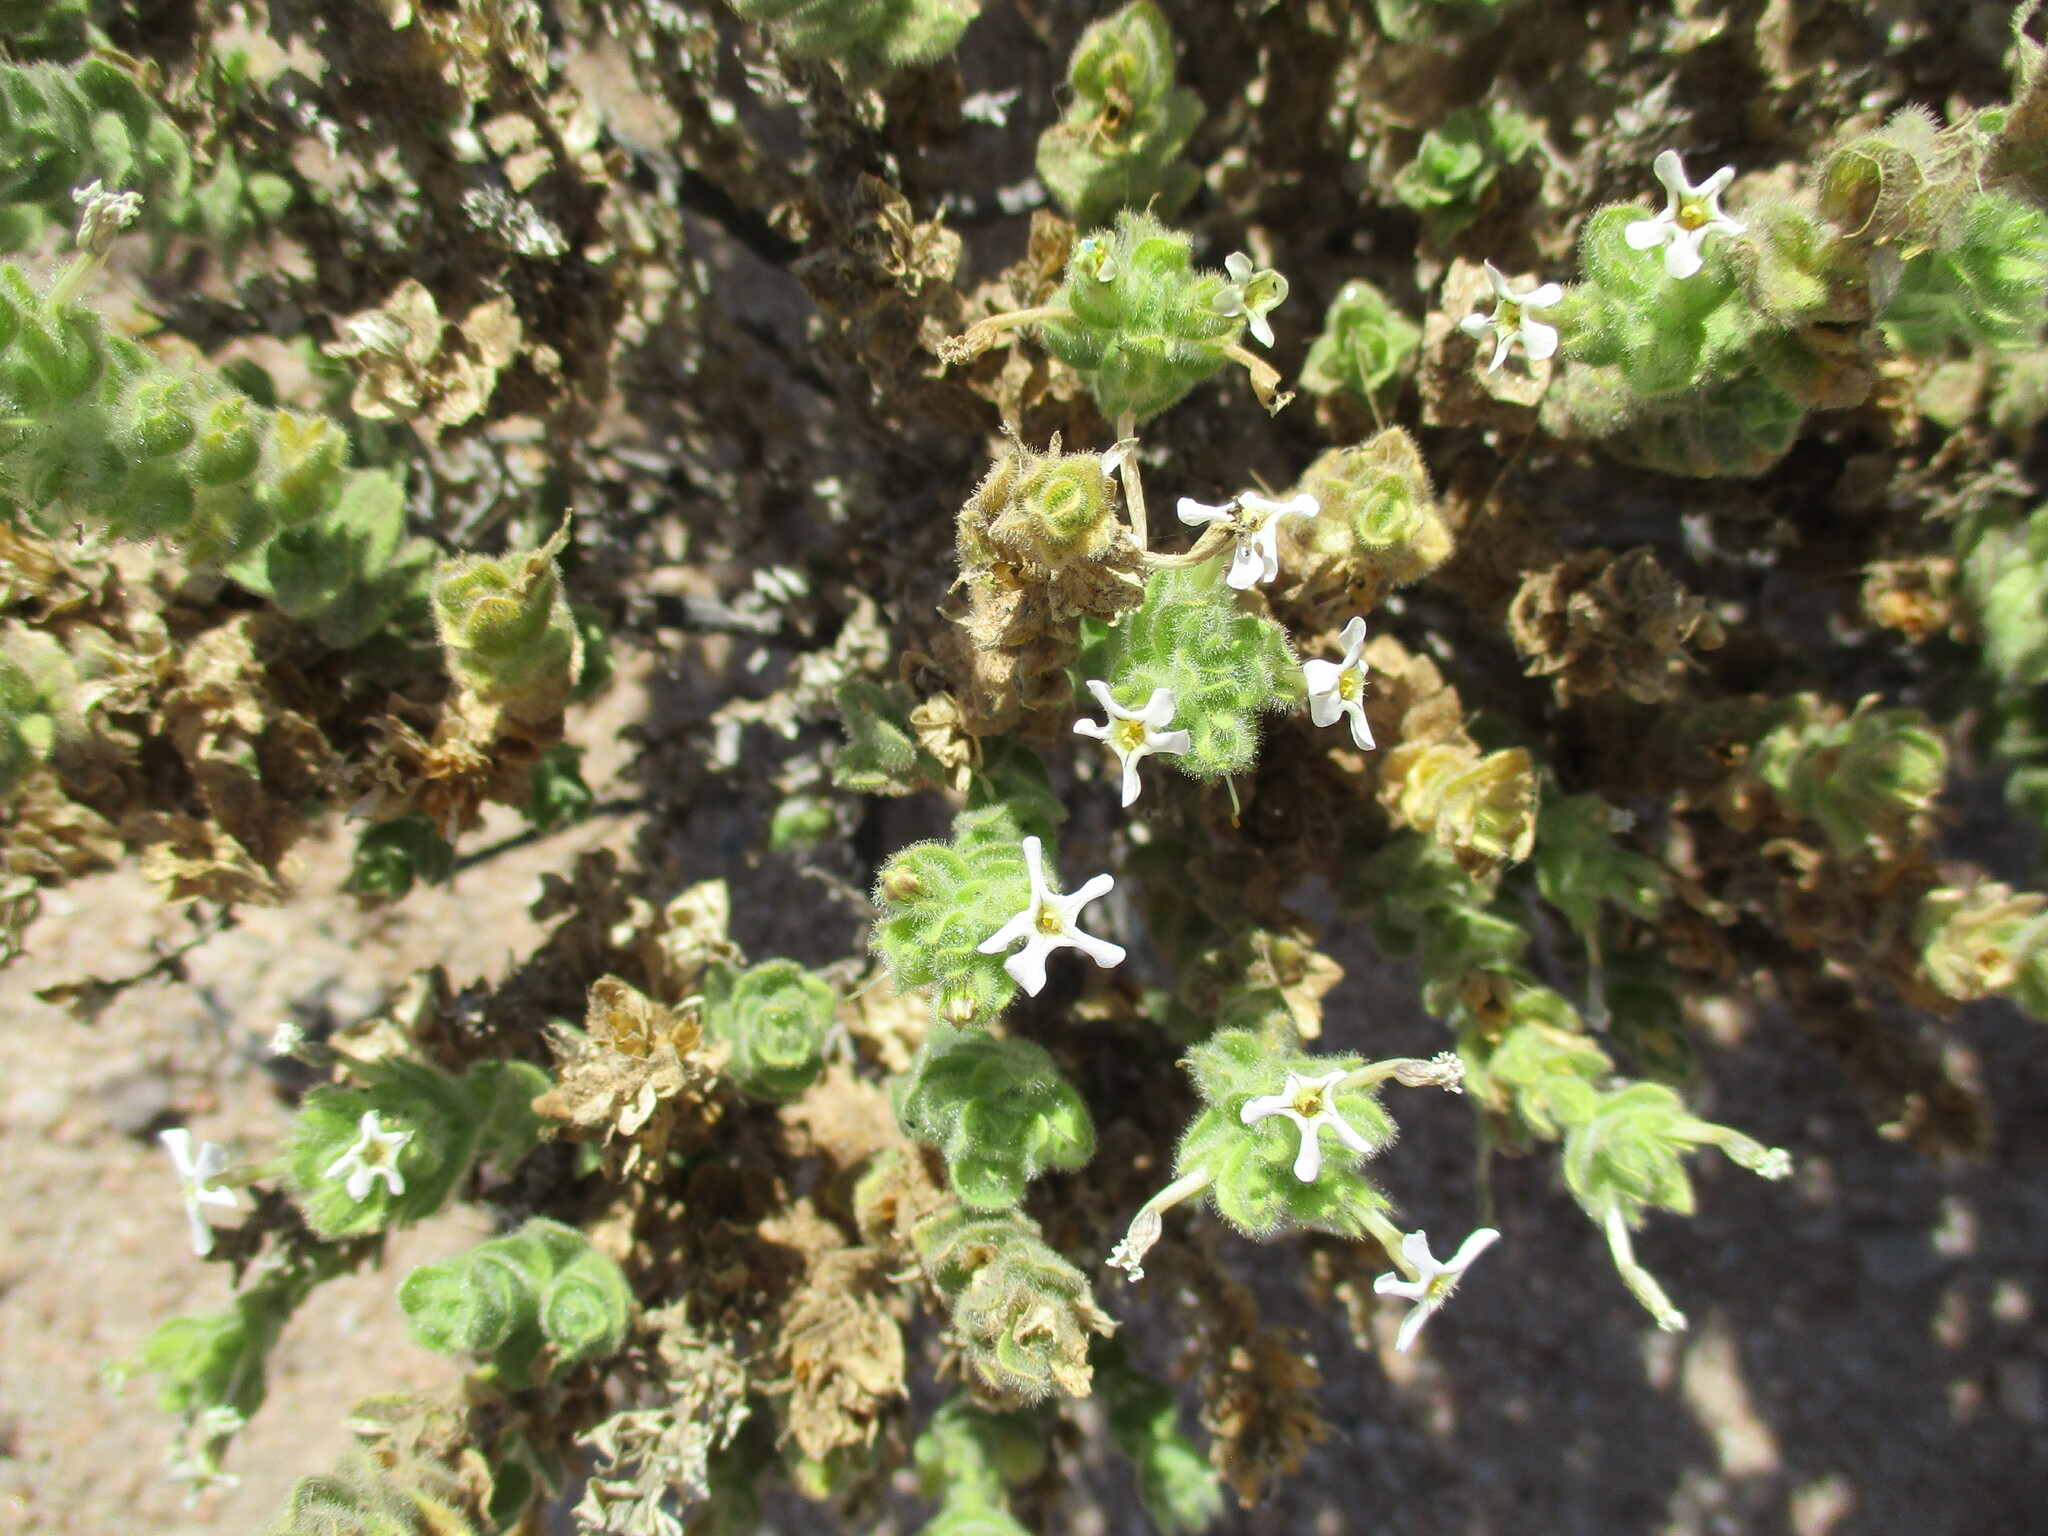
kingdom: Plantae
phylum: Tracheophyta
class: Magnoliopsida
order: Lamiales
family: Scrophulariaceae
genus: Jamesbrittenia
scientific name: Jamesbrittenia maxii
